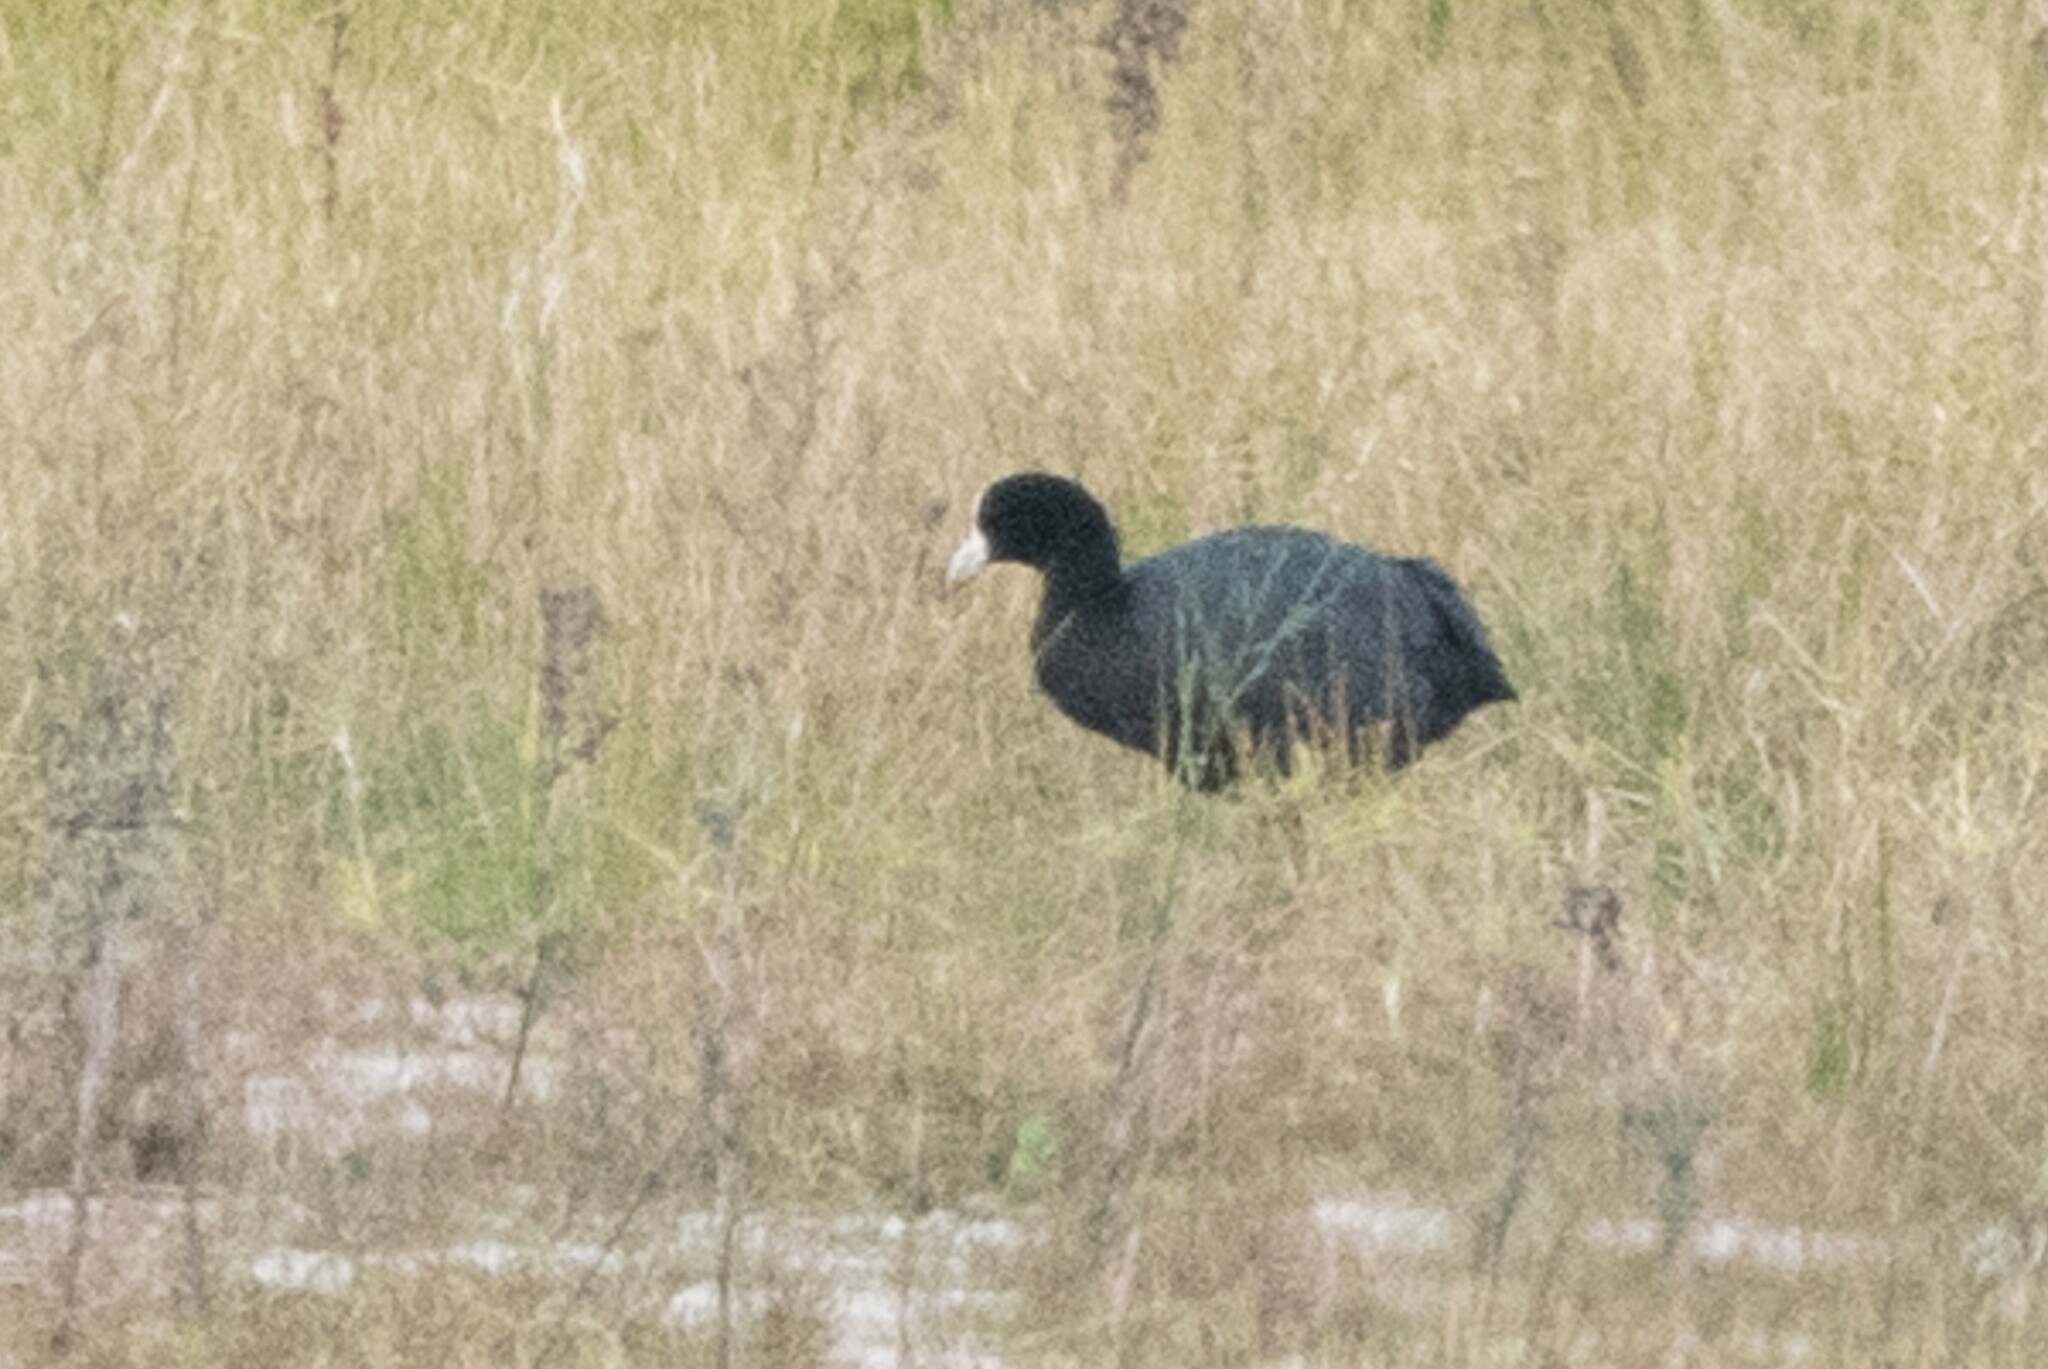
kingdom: Animalia
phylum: Chordata
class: Aves
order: Gruiformes
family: Rallidae
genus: Fulica
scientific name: Fulica ardesiaca
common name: Andean coot
